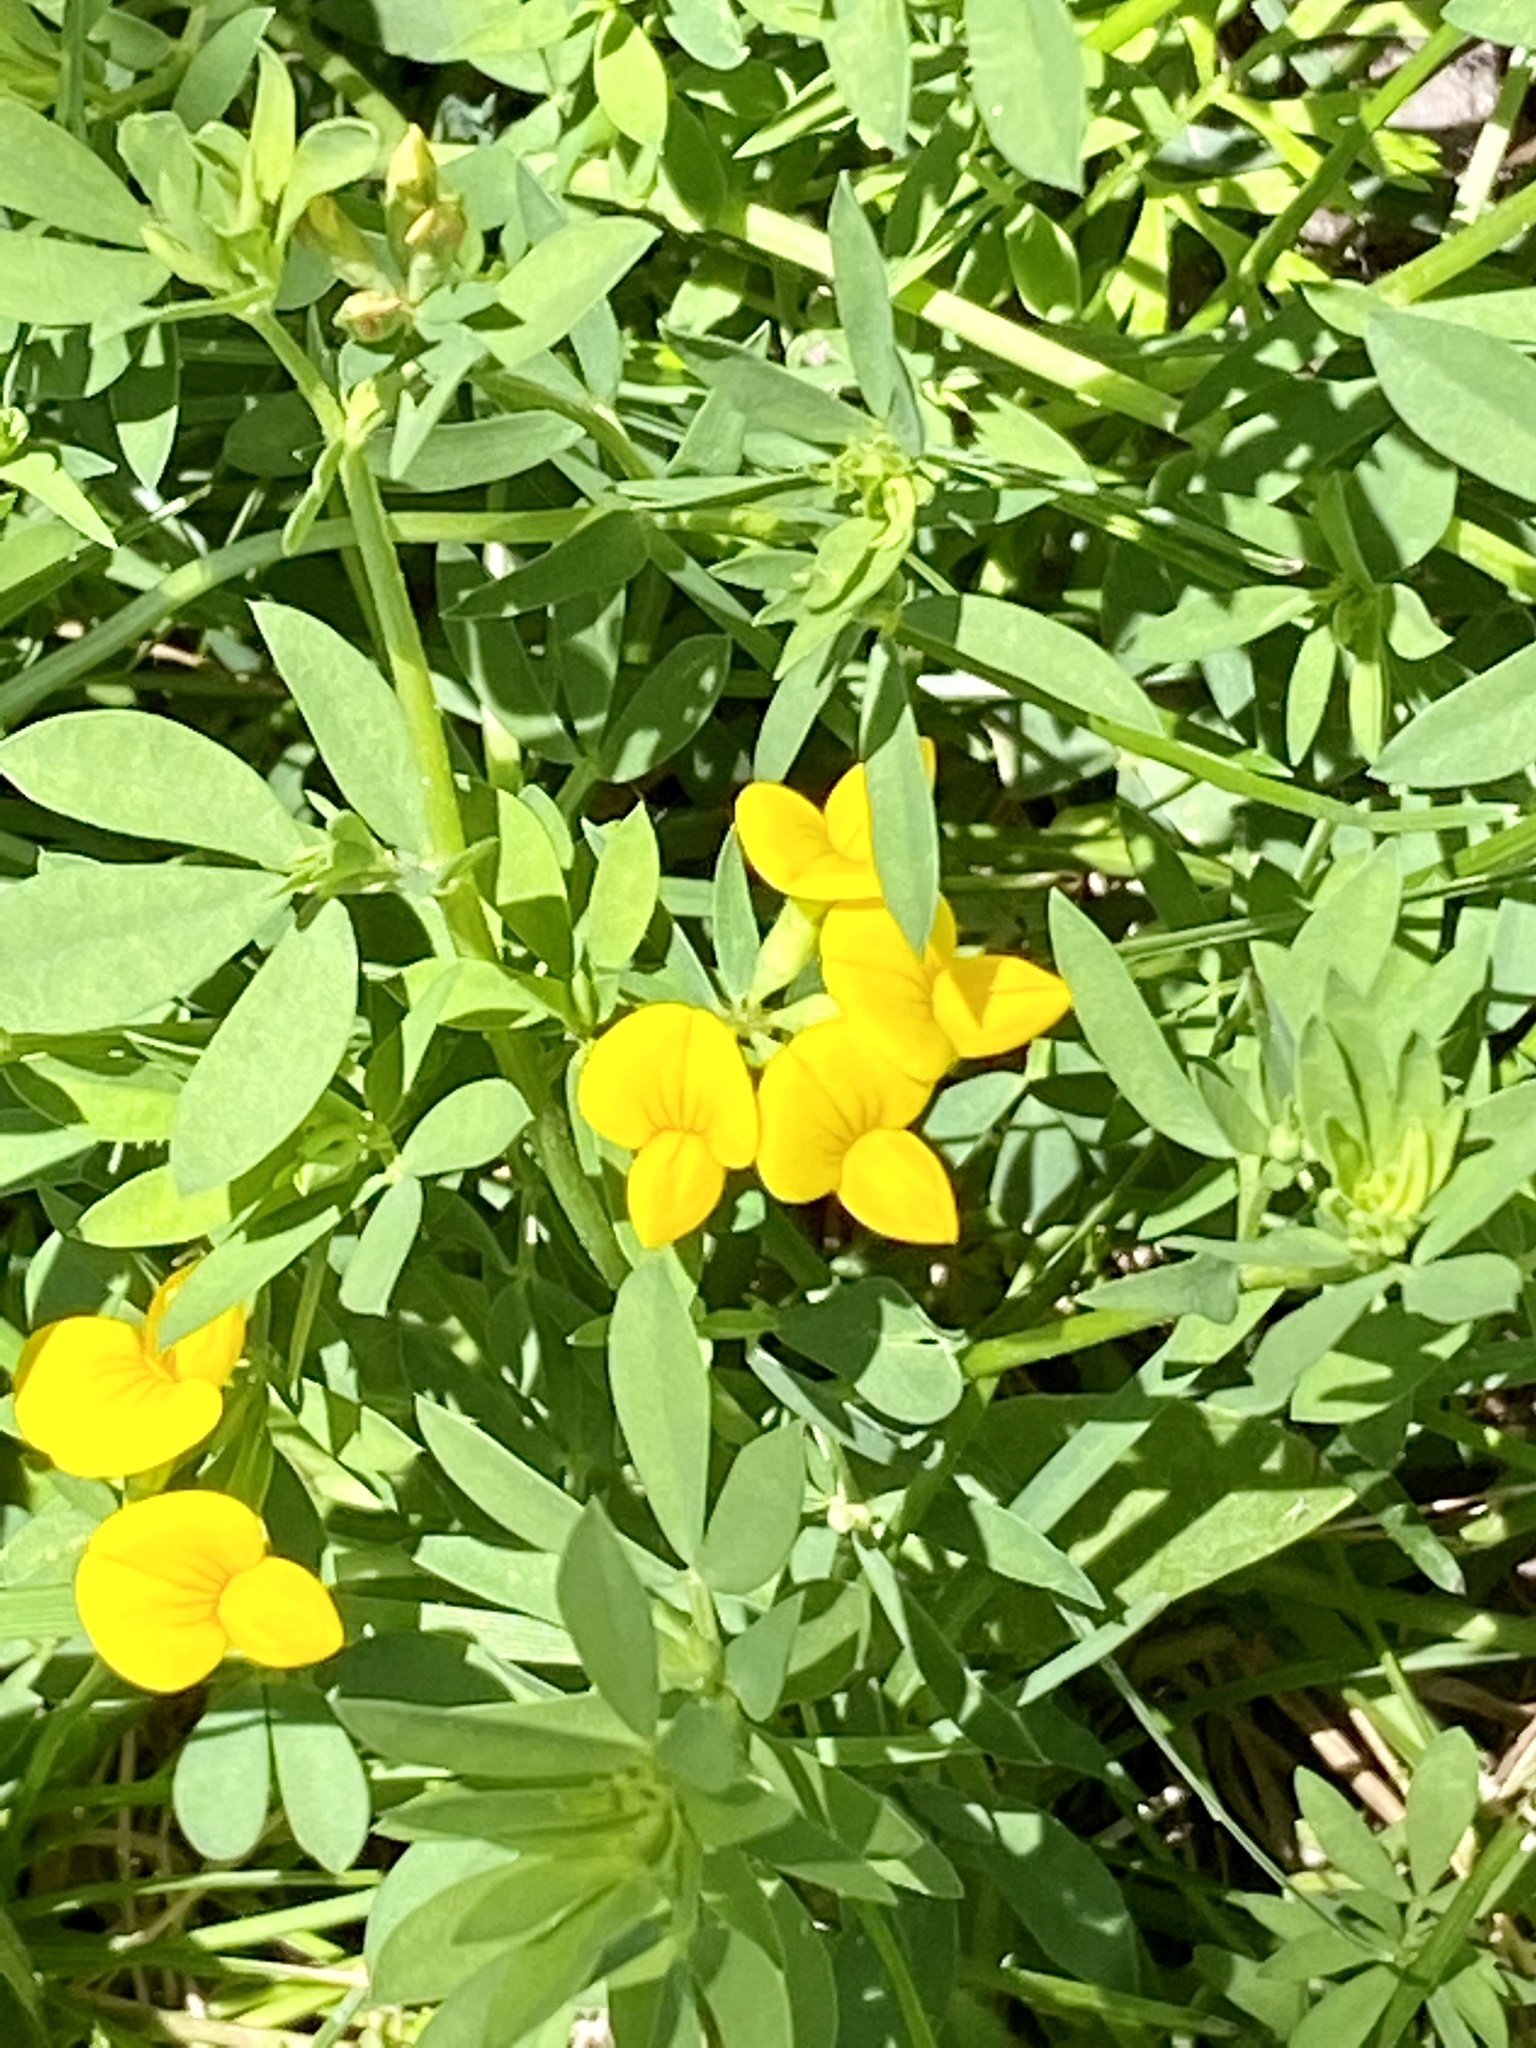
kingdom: Plantae
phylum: Tracheophyta
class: Magnoliopsida
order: Fabales
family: Fabaceae
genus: Lotus
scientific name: Lotus corniculatus
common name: Common bird's-foot-trefoil
